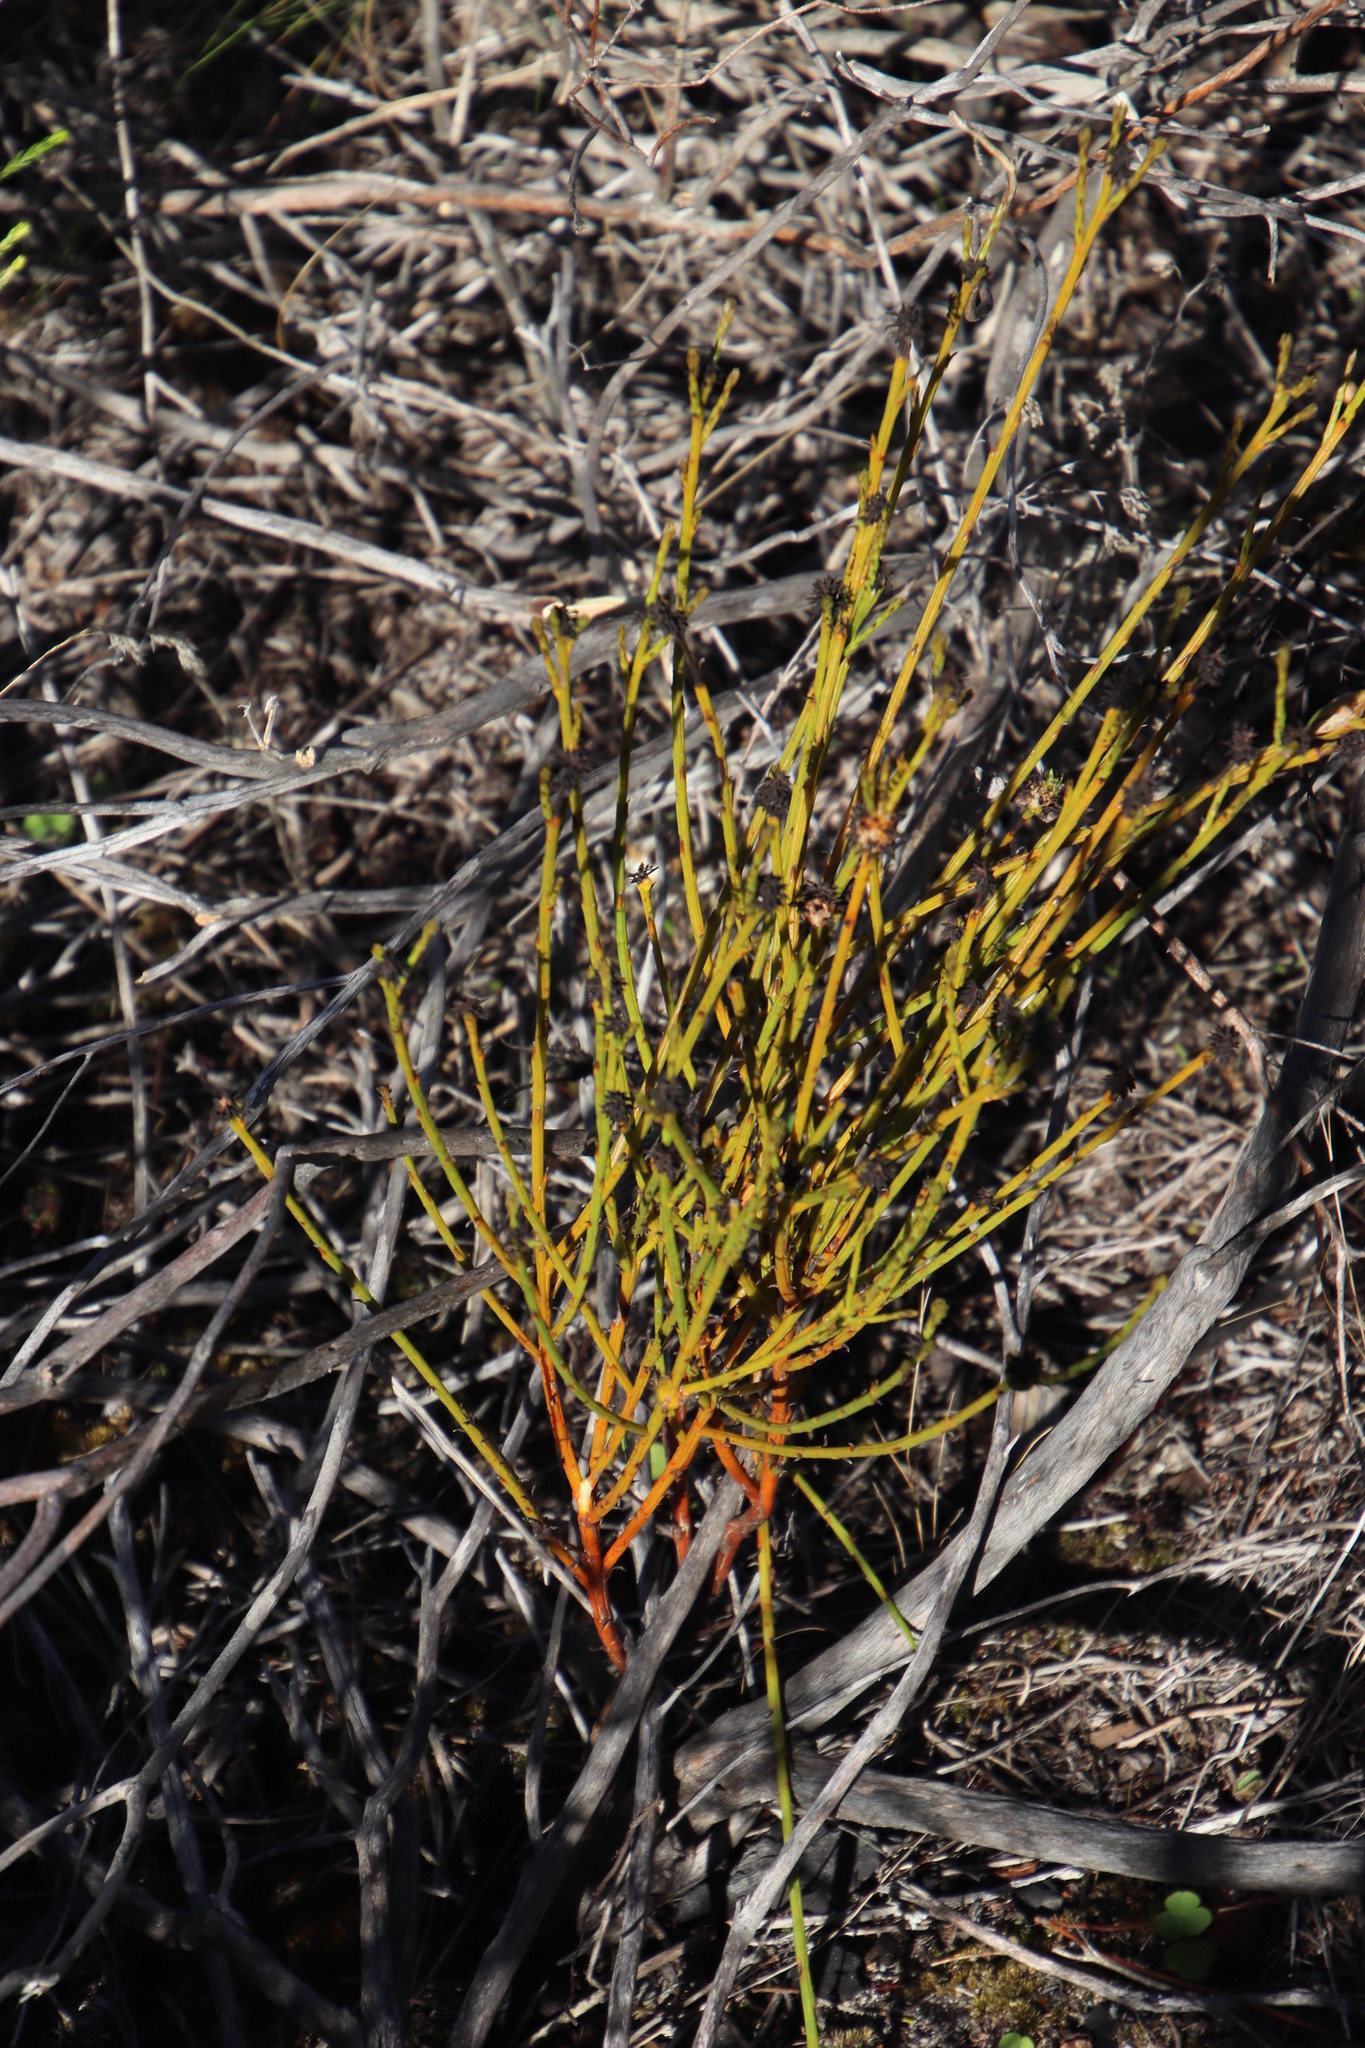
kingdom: Plantae
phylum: Tracheophyta
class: Magnoliopsida
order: Santalales
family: Thesiaceae
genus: Thesium
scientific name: Thesium aggregatum
